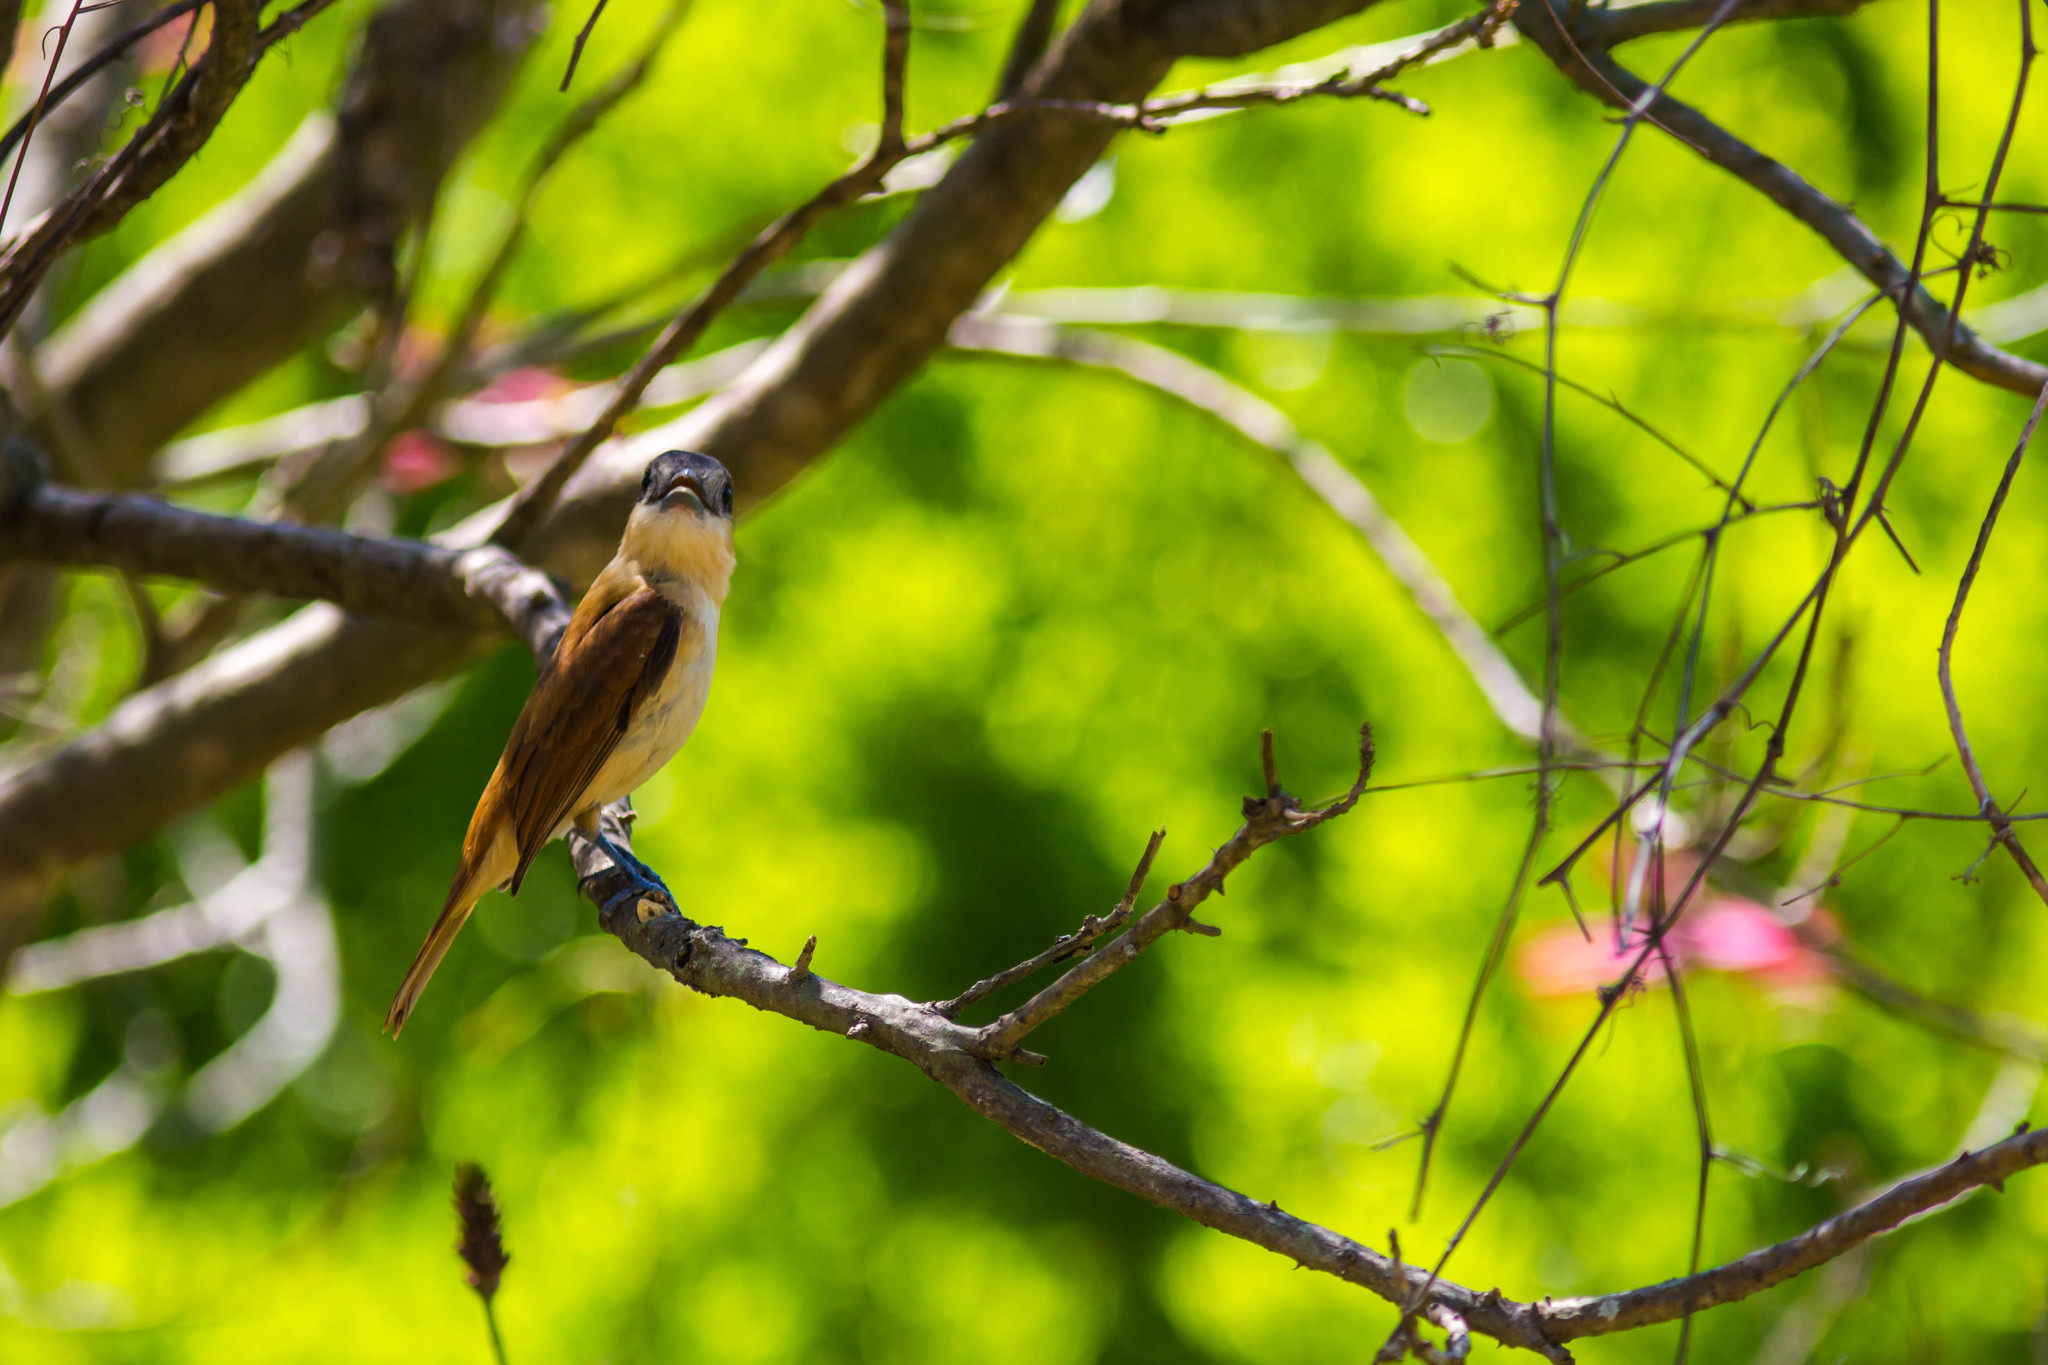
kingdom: Animalia
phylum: Chordata
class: Aves
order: Passeriformes
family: Cotingidae
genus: Pachyramphus
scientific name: Pachyramphus aglaiae
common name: Rose-throated becard
